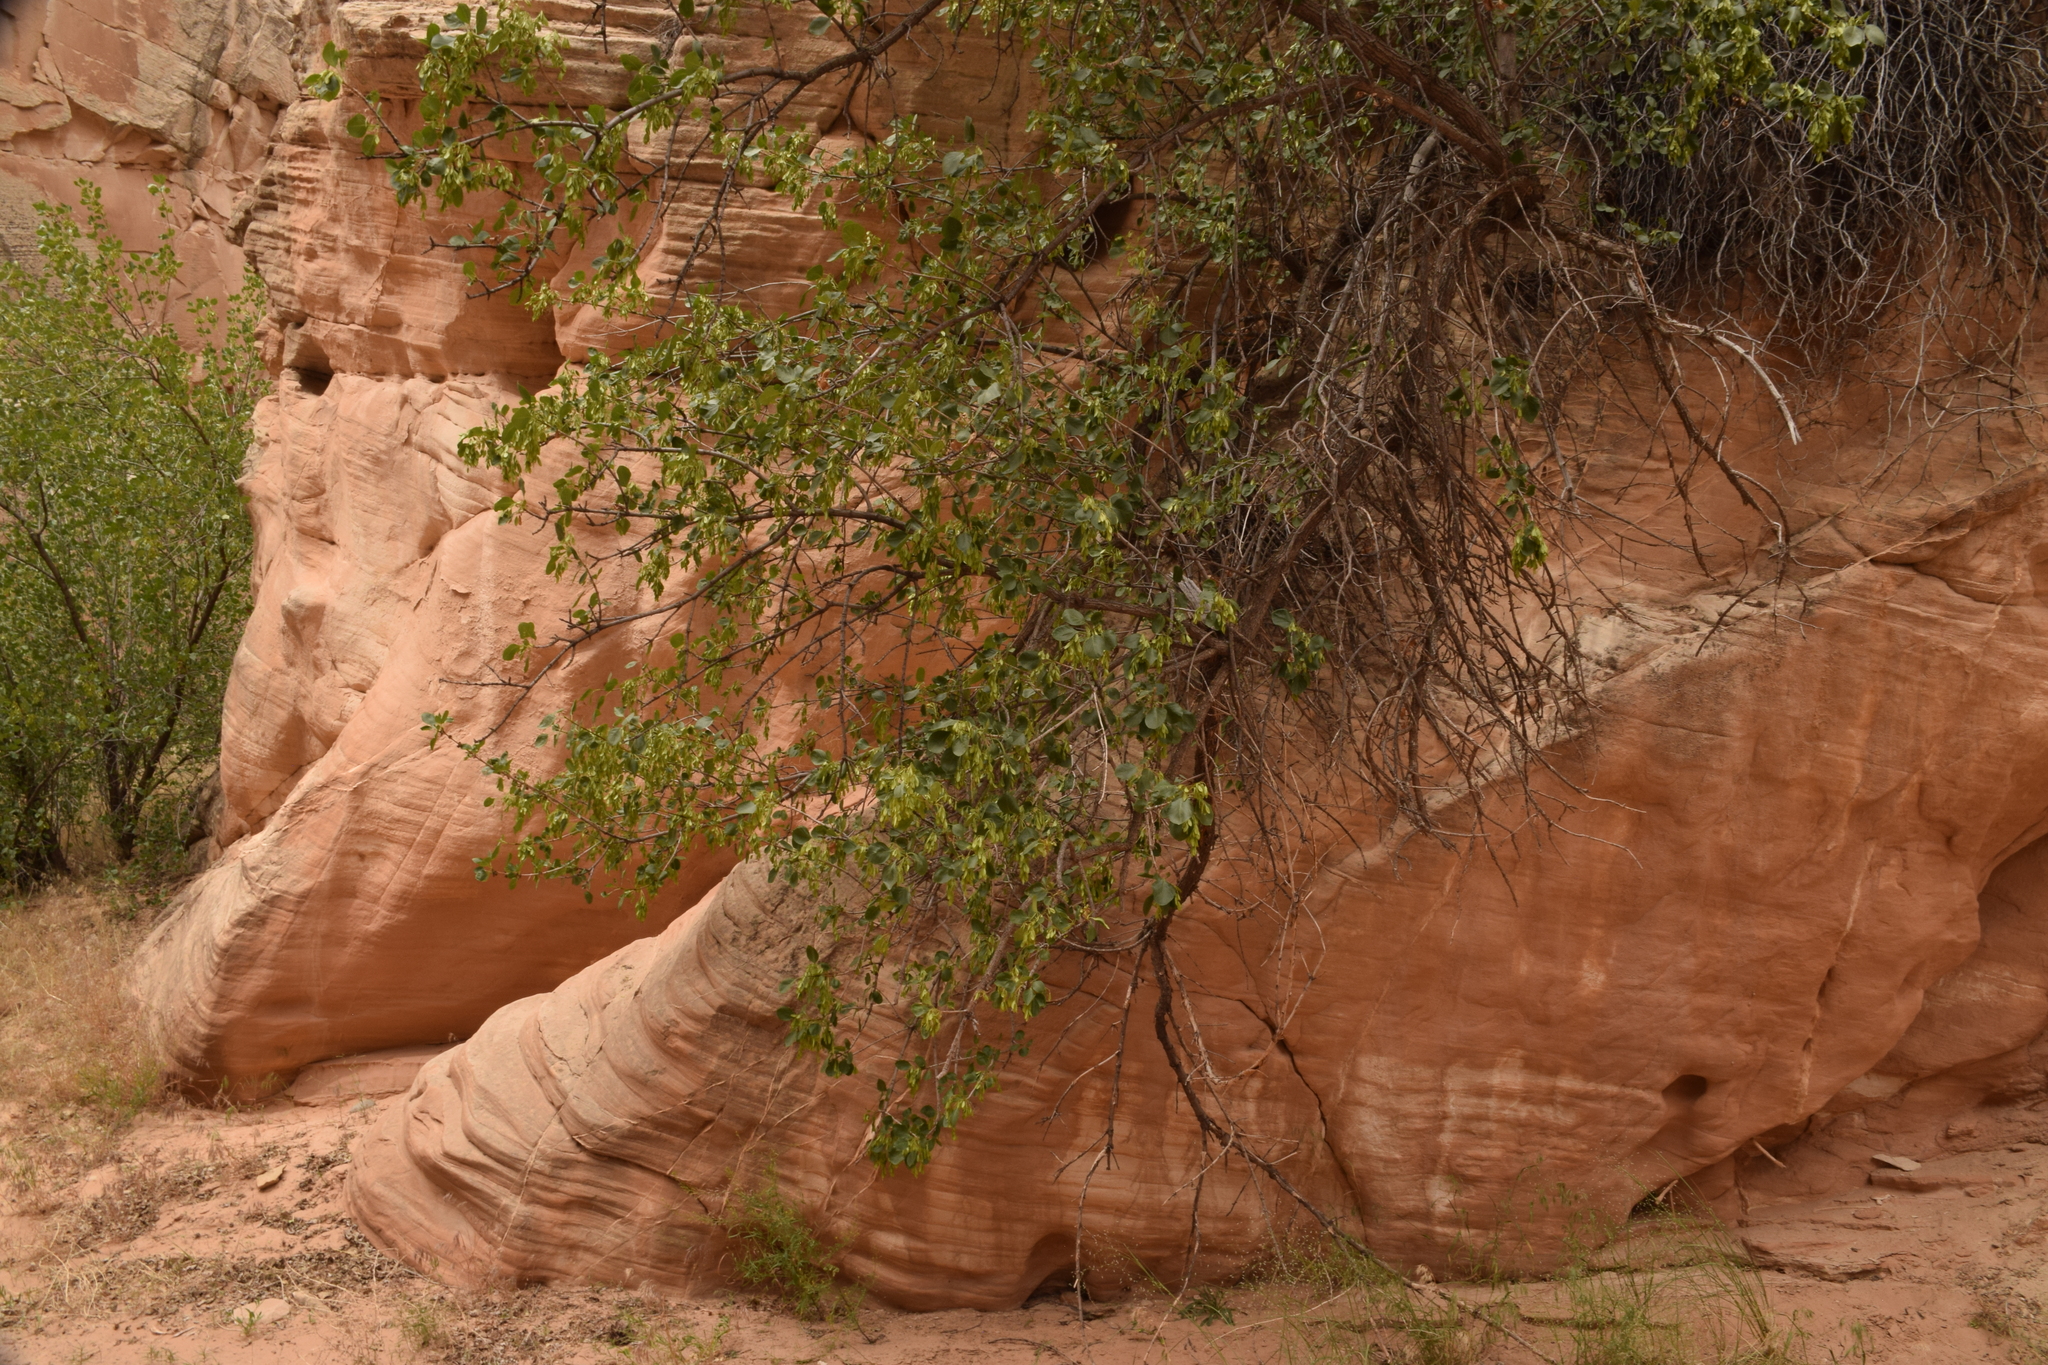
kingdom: Plantae
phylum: Tracheophyta
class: Magnoliopsida
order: Lamiales
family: Oleaceae
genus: Fraxinus
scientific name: Fraxinus anomala
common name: Utah ash
